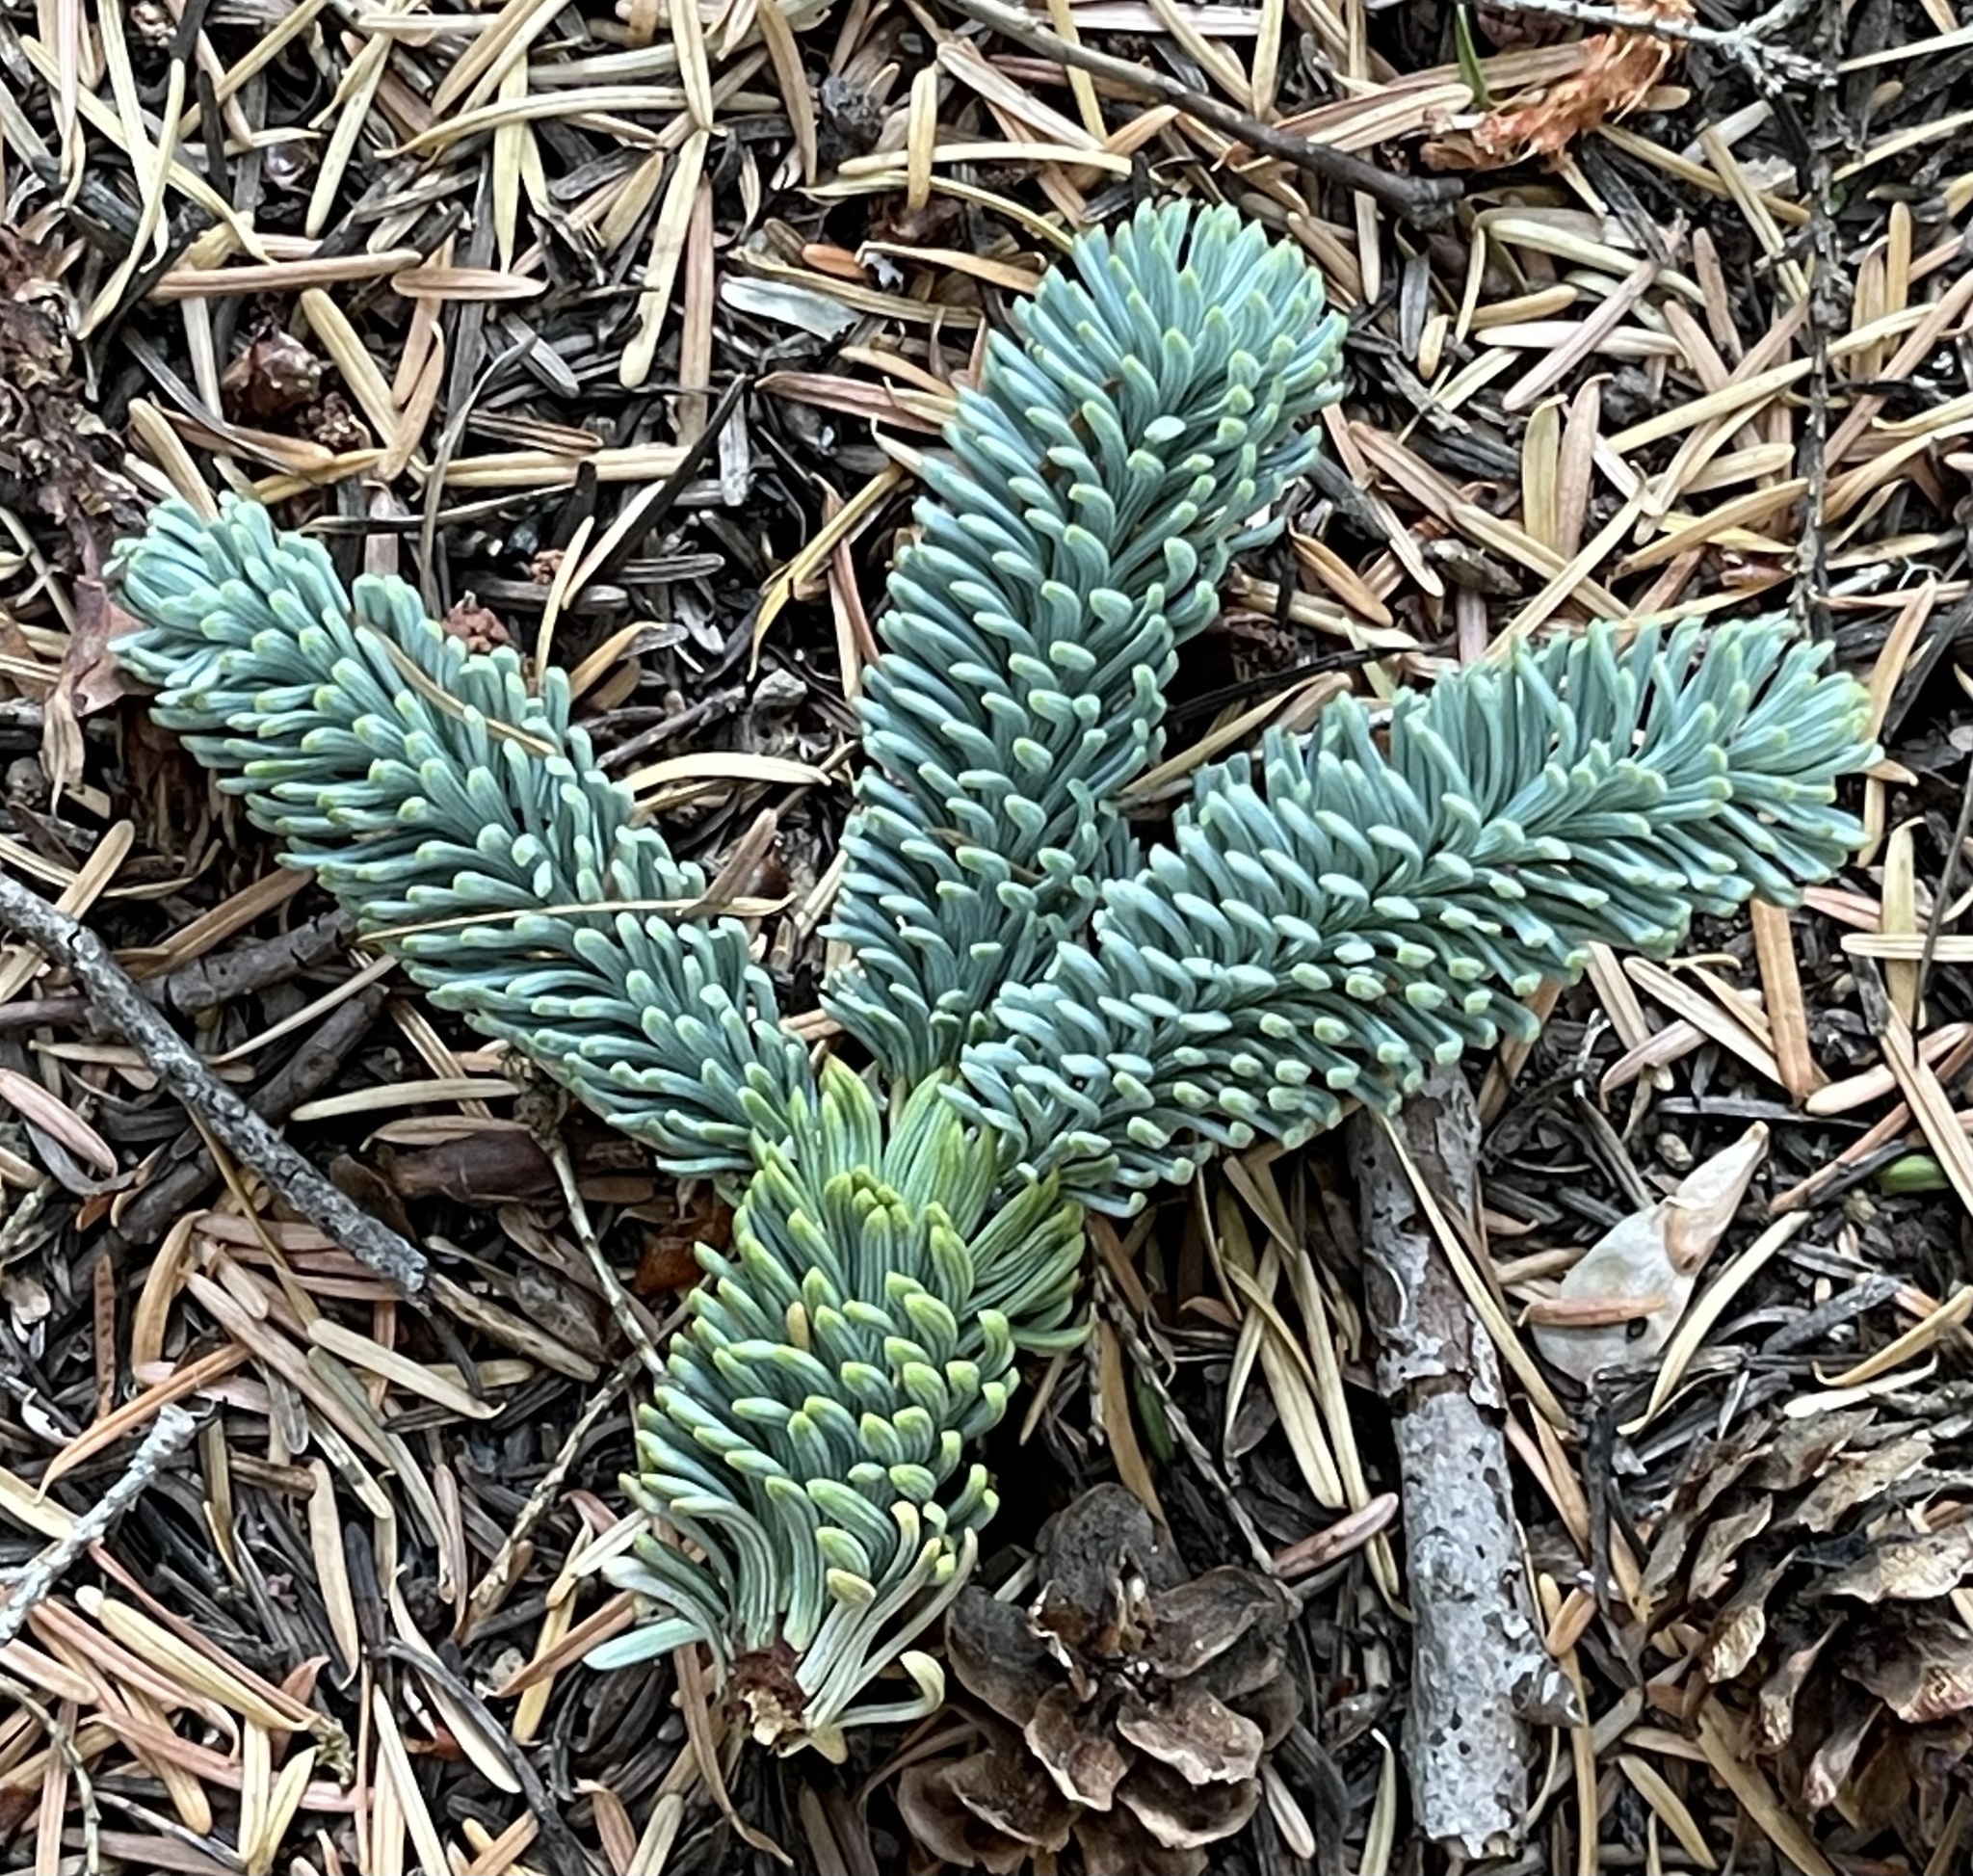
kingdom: Plantae
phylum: Tracheophyta
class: Pinopsida
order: Pinales
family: Pinaceae
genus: Abies
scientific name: Abies procera
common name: Noble fir
